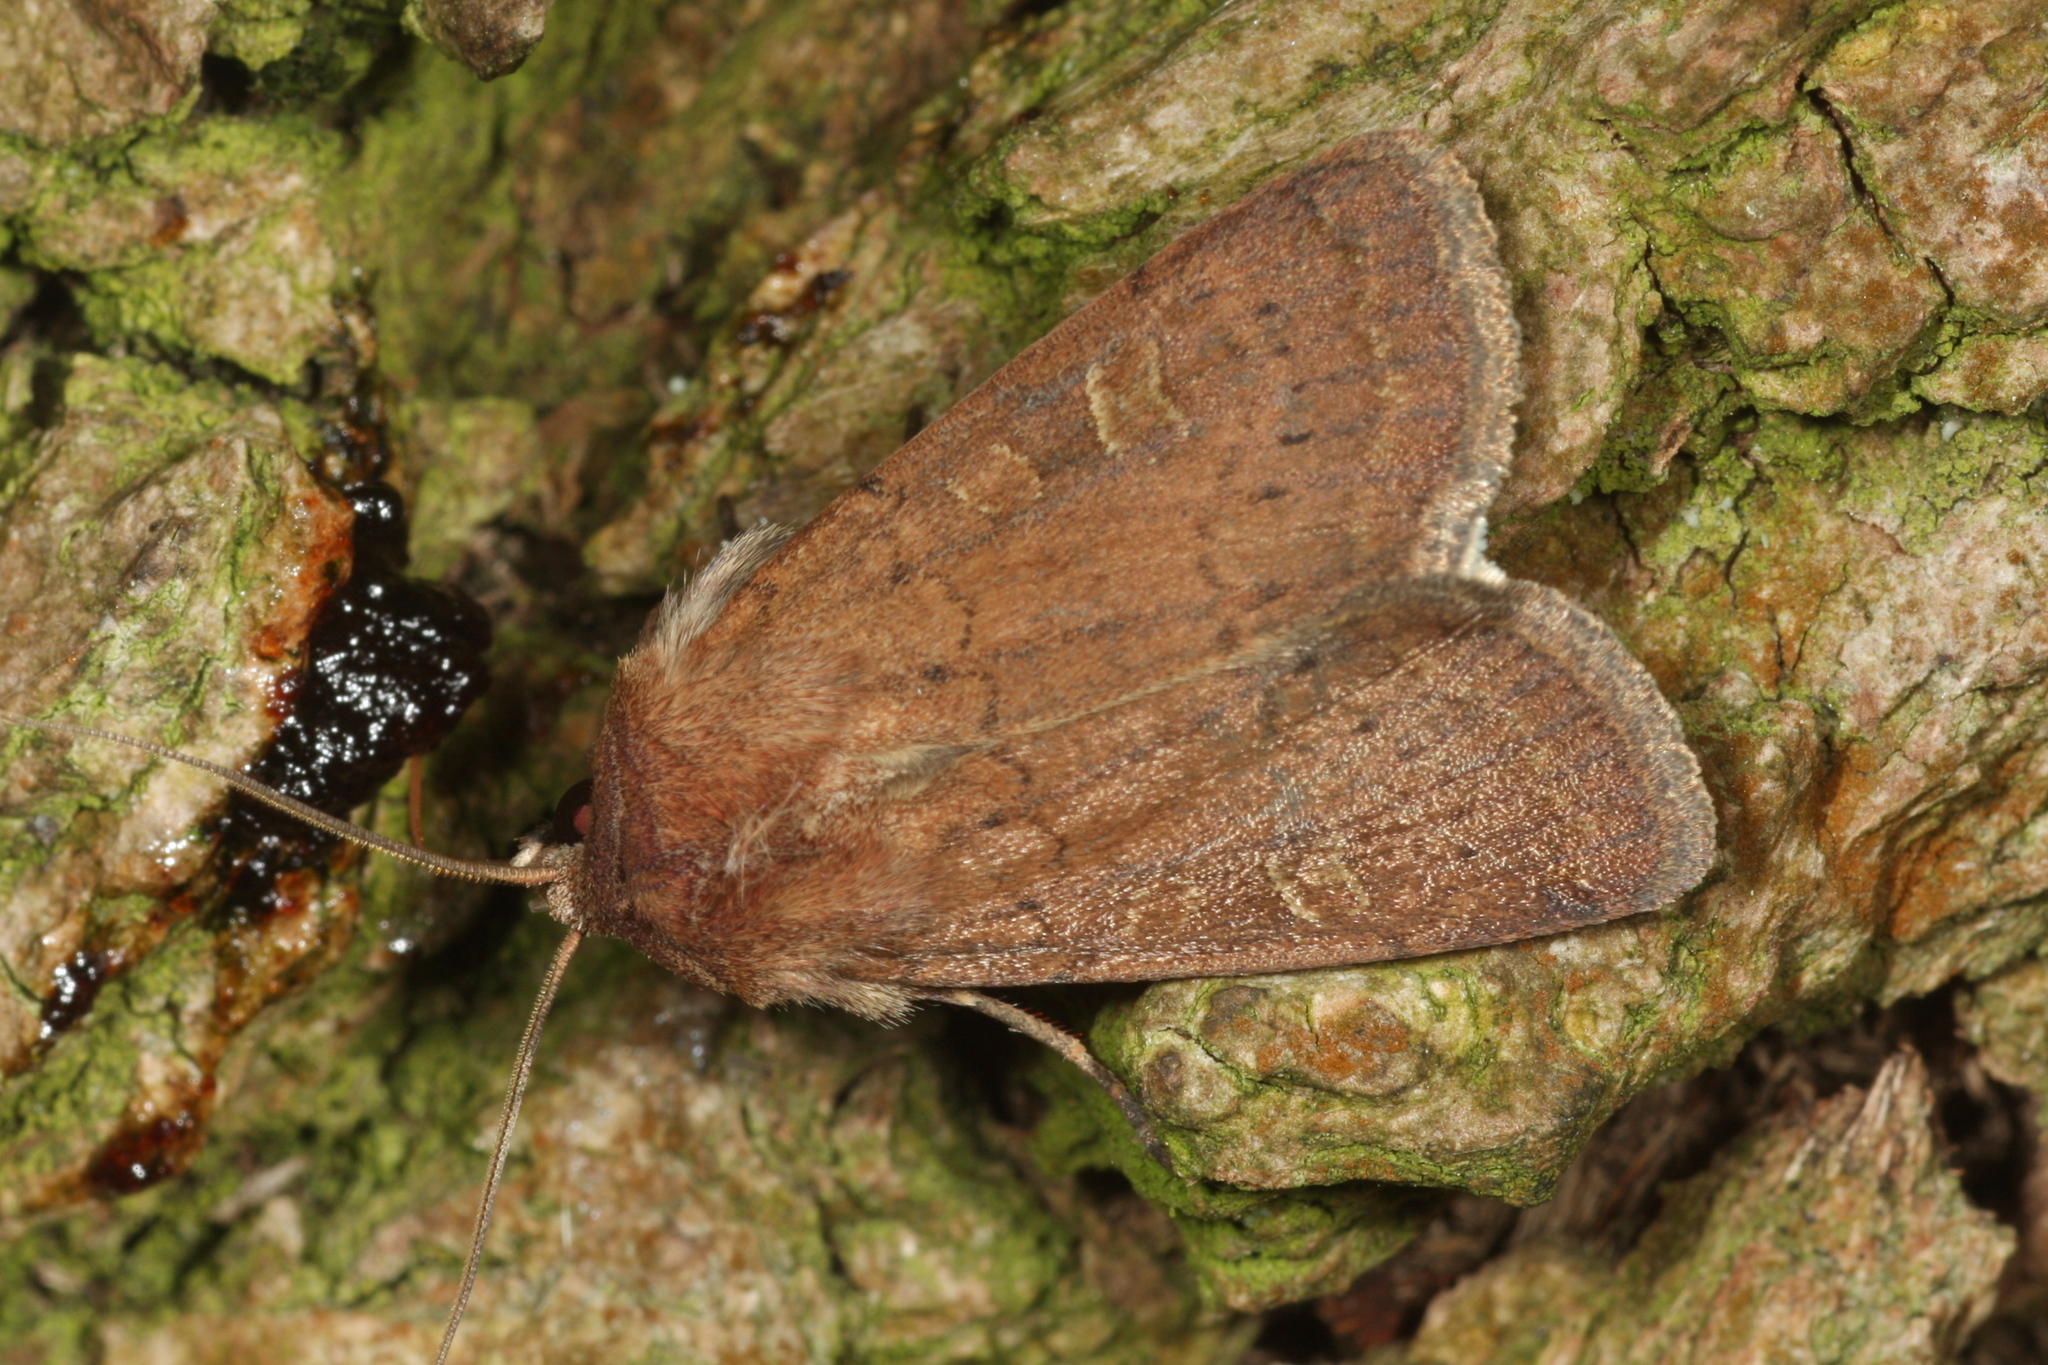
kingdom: Animalia
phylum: Arthropoda
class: Insecta
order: Lepidoptera
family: Noctuidae
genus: Xestia
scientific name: Xestia xanthographa
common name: Square-spot rustic
